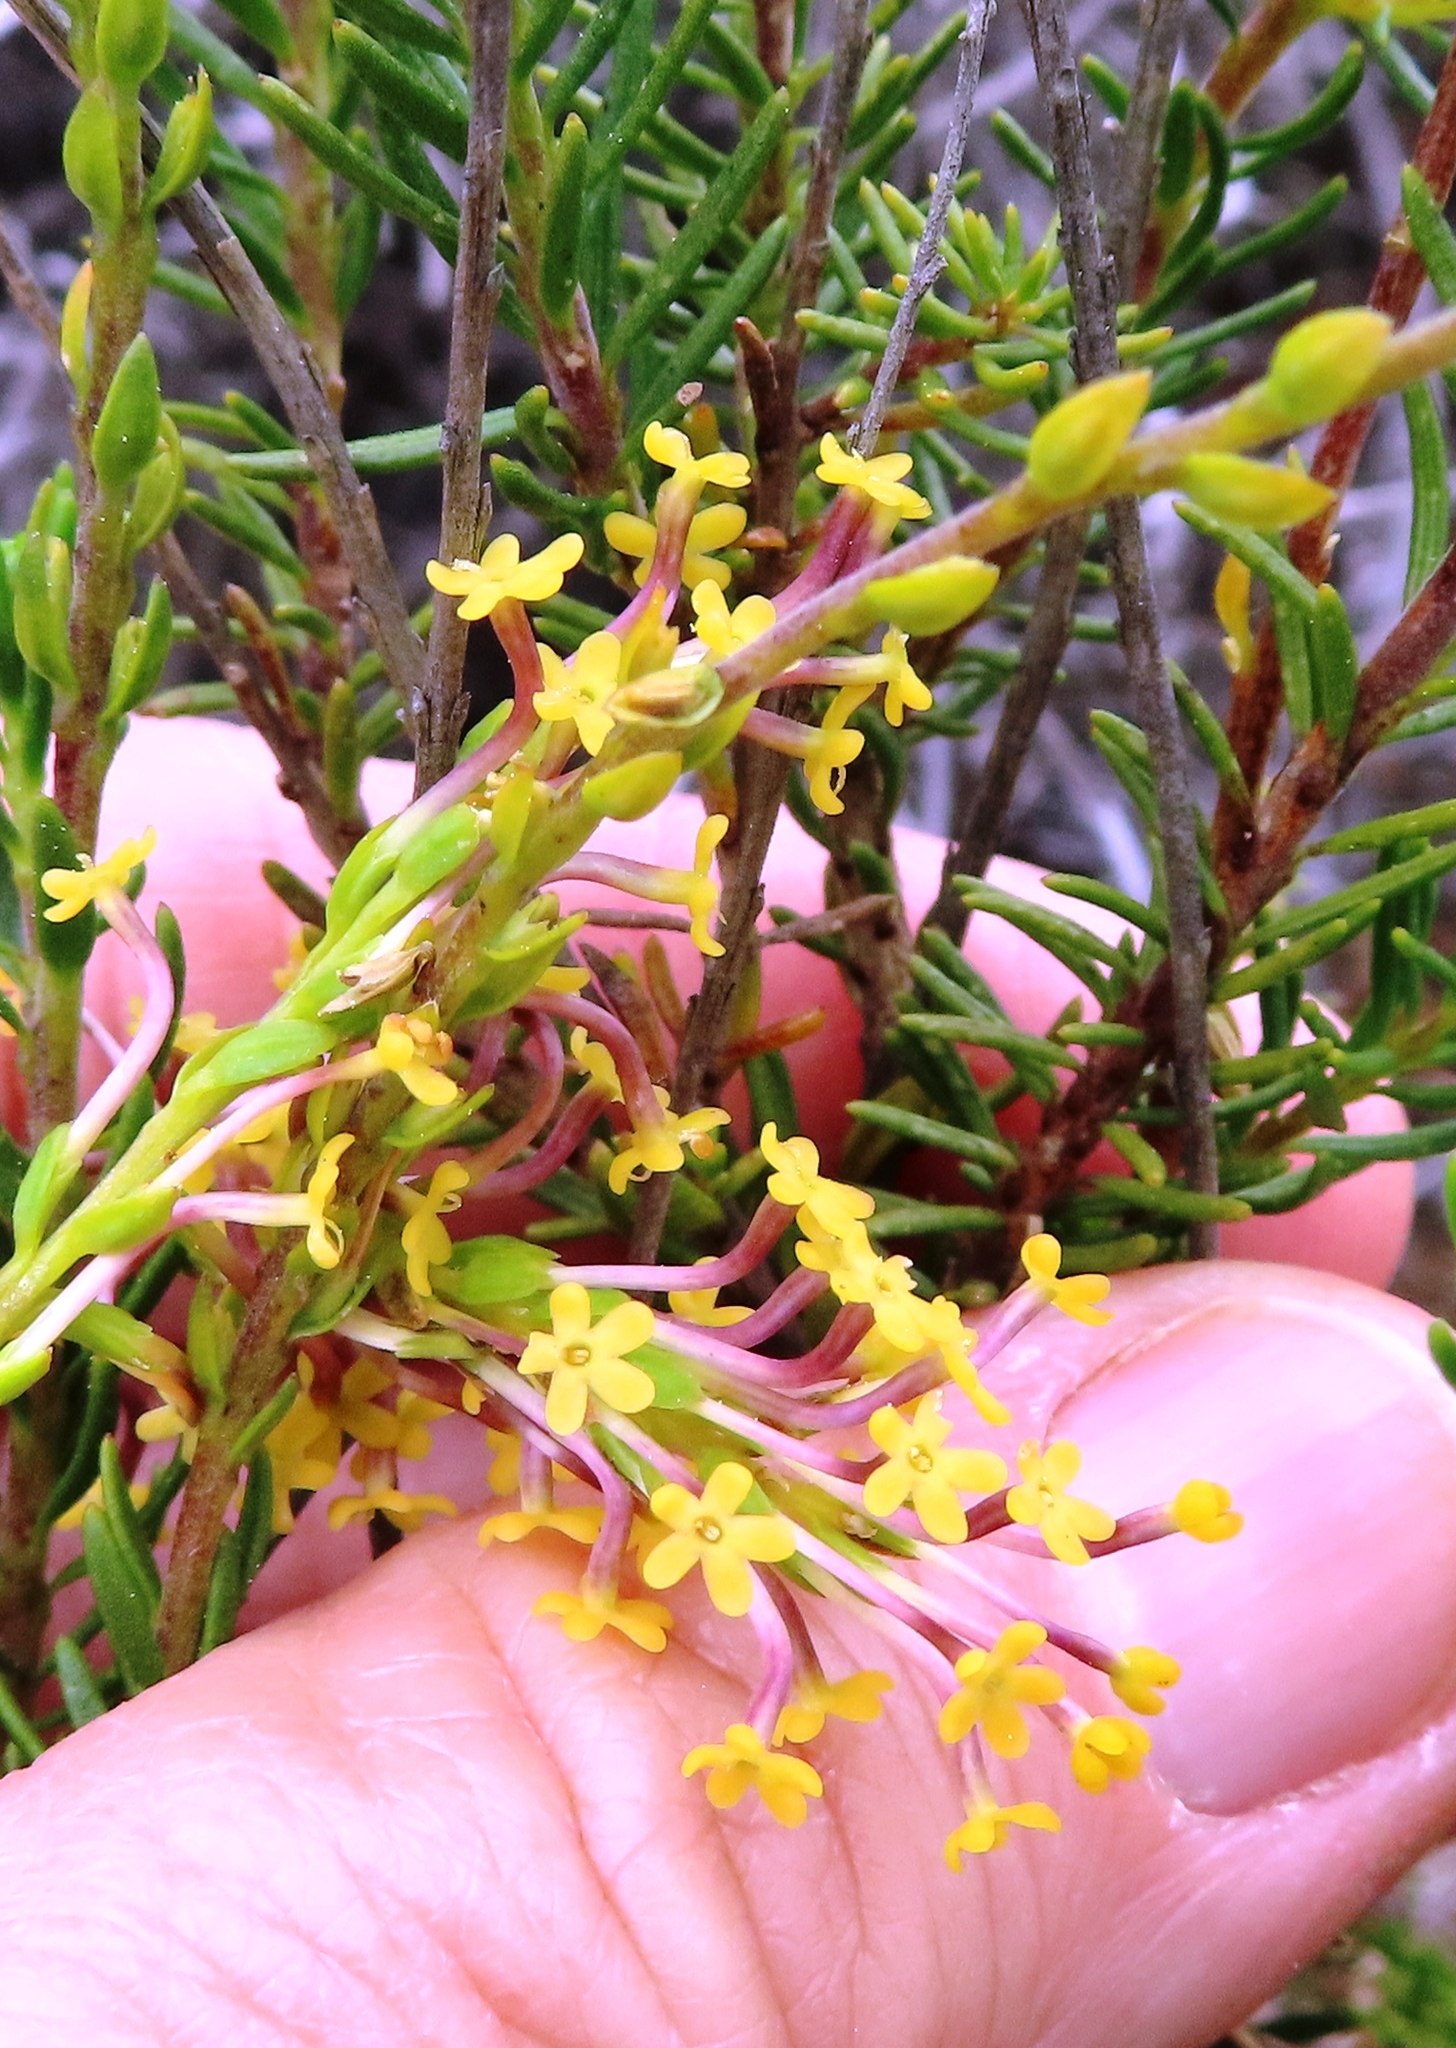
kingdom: Plantae
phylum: Tracheophyta
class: Magnoliopsida
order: Lamiales
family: Scrophulariaceae
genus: Microdon
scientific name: Microdon dubius
